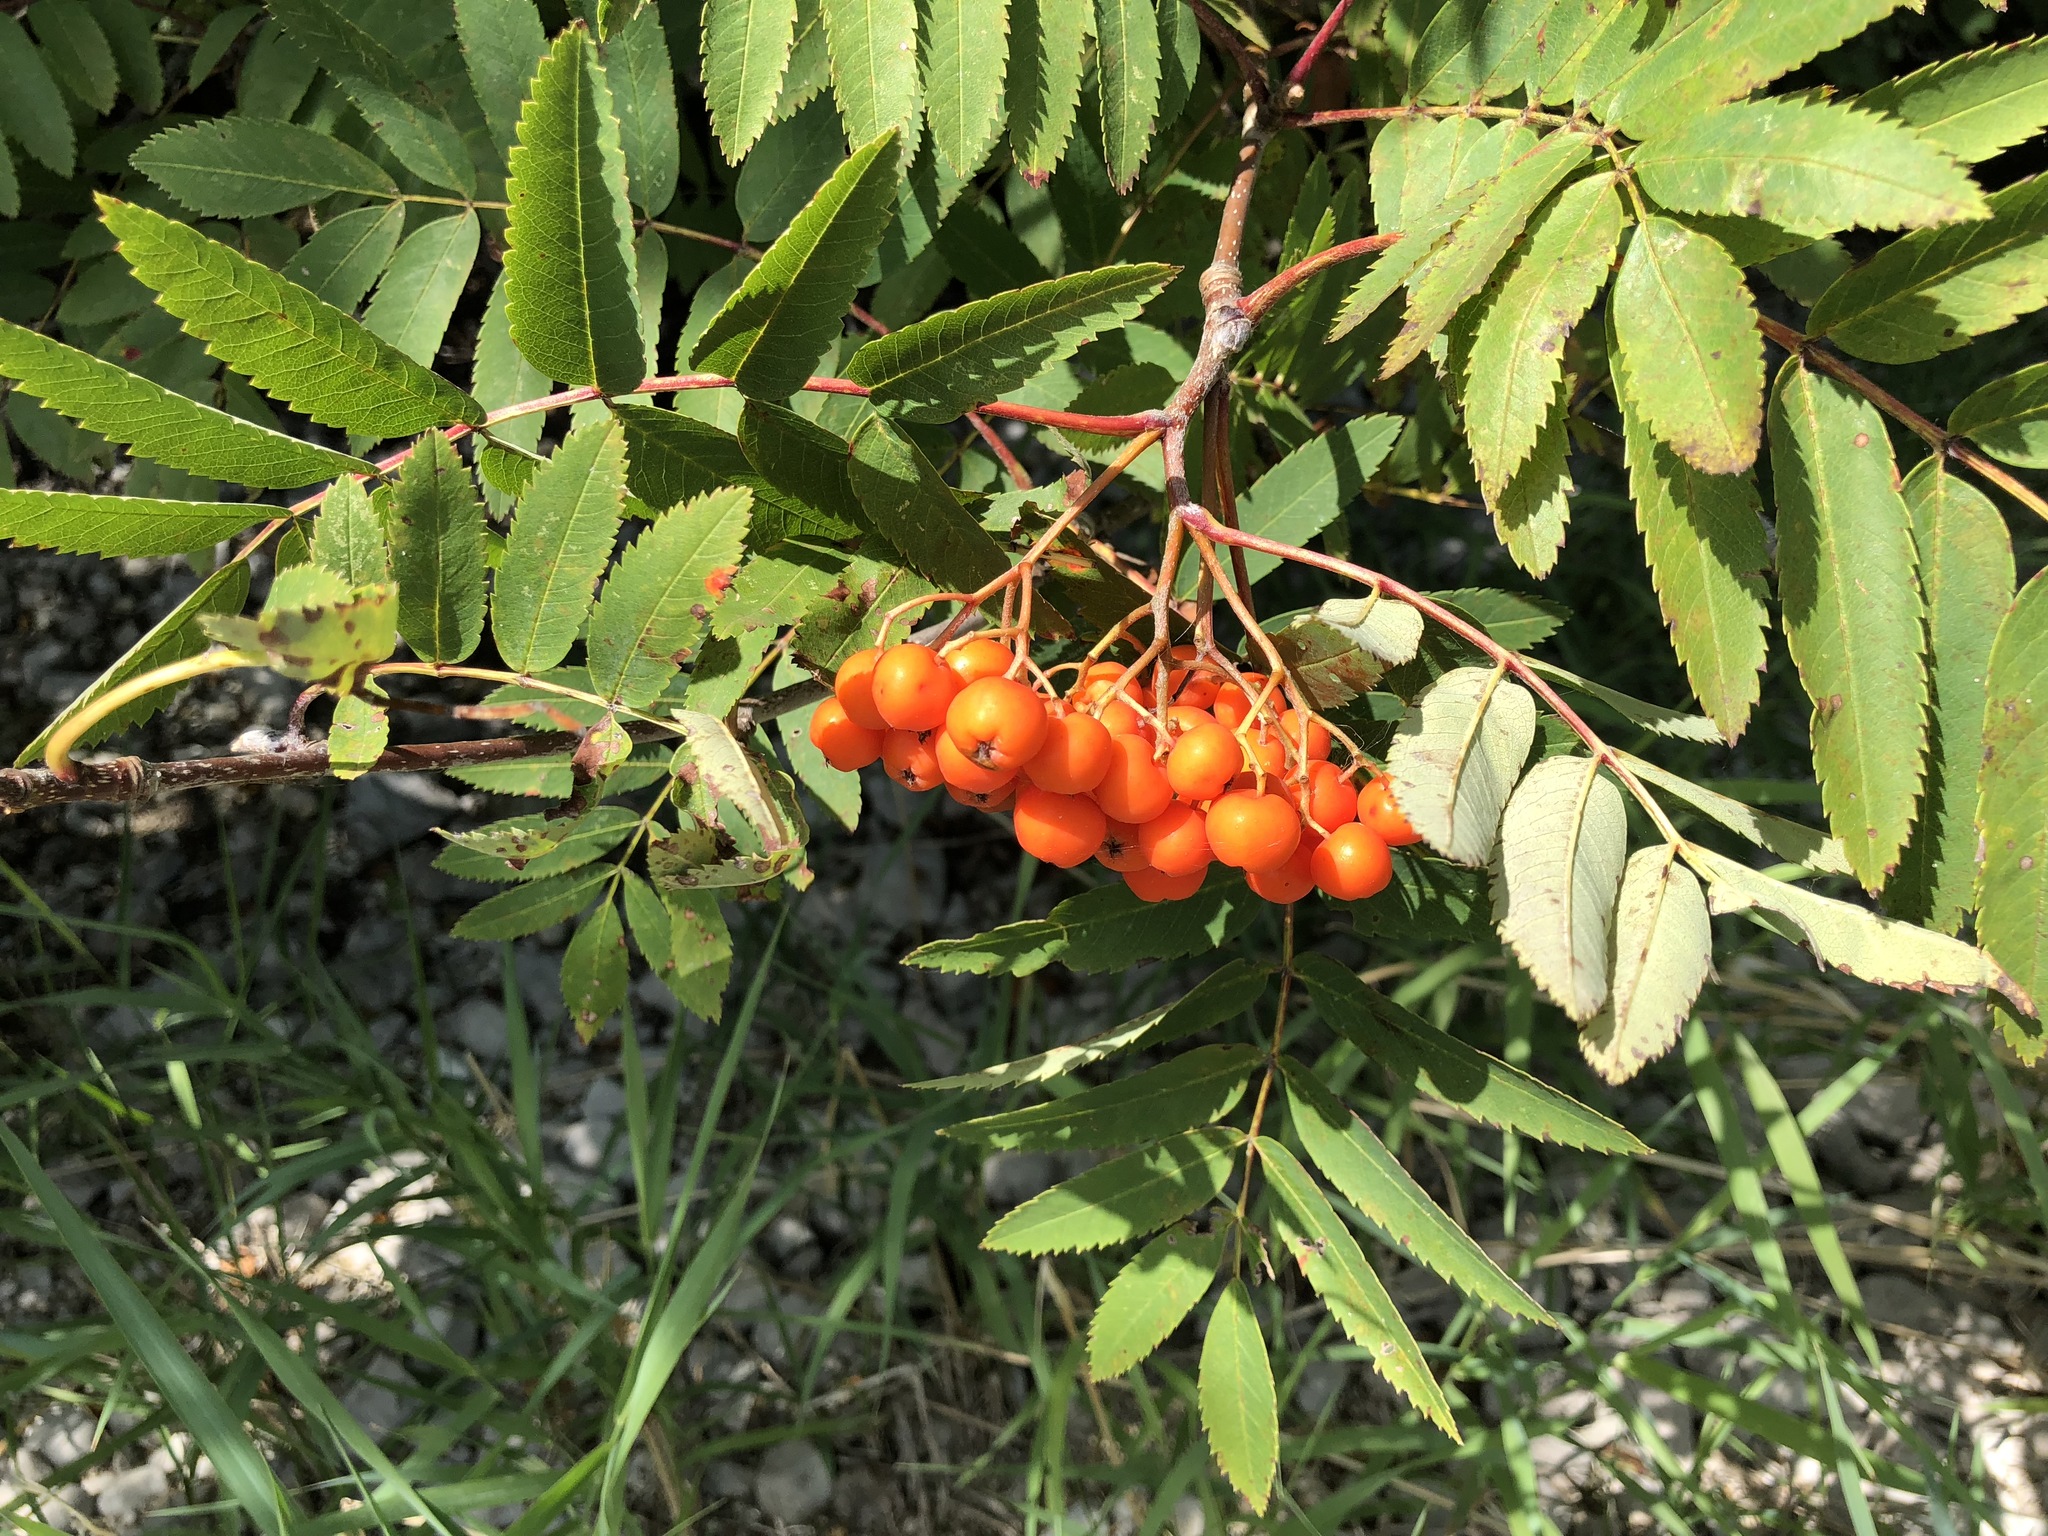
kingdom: Plantae
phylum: Tracheophyta
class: Magnoliopsida
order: Rosales
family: Rosaceae
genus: Sorbus
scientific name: Sorbus aucuparia
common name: Rowan
